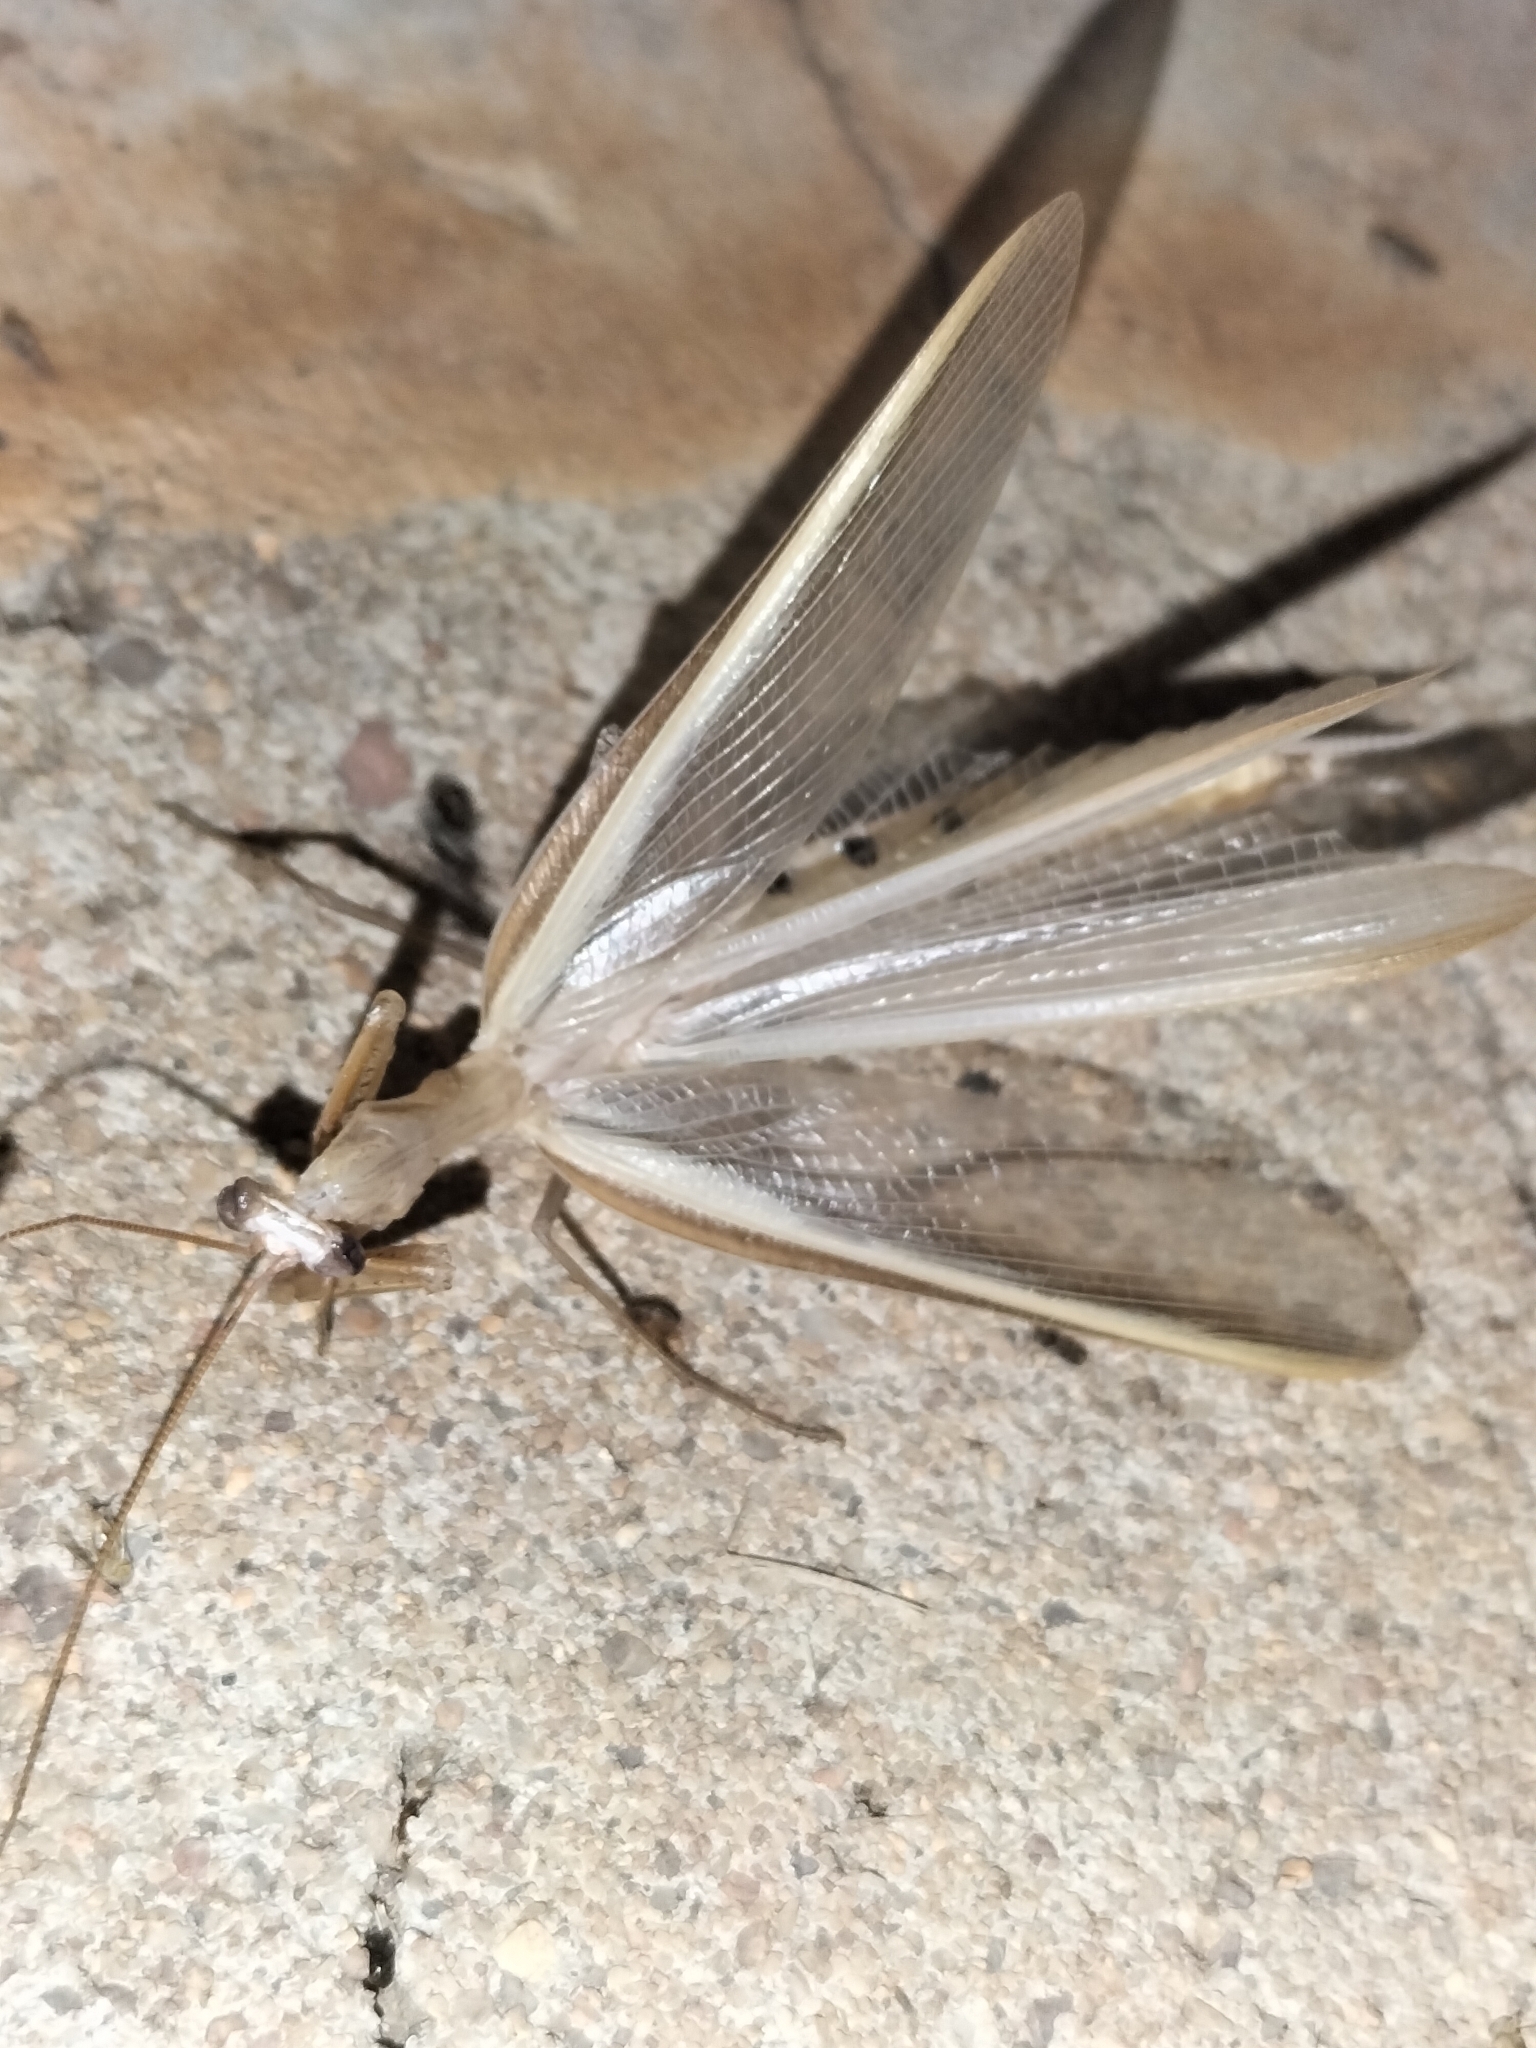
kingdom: Animalia
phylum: Arthropoda
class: Insecta
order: Mantodea
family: Mantidae
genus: Mantis
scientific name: Mantis octospilota
